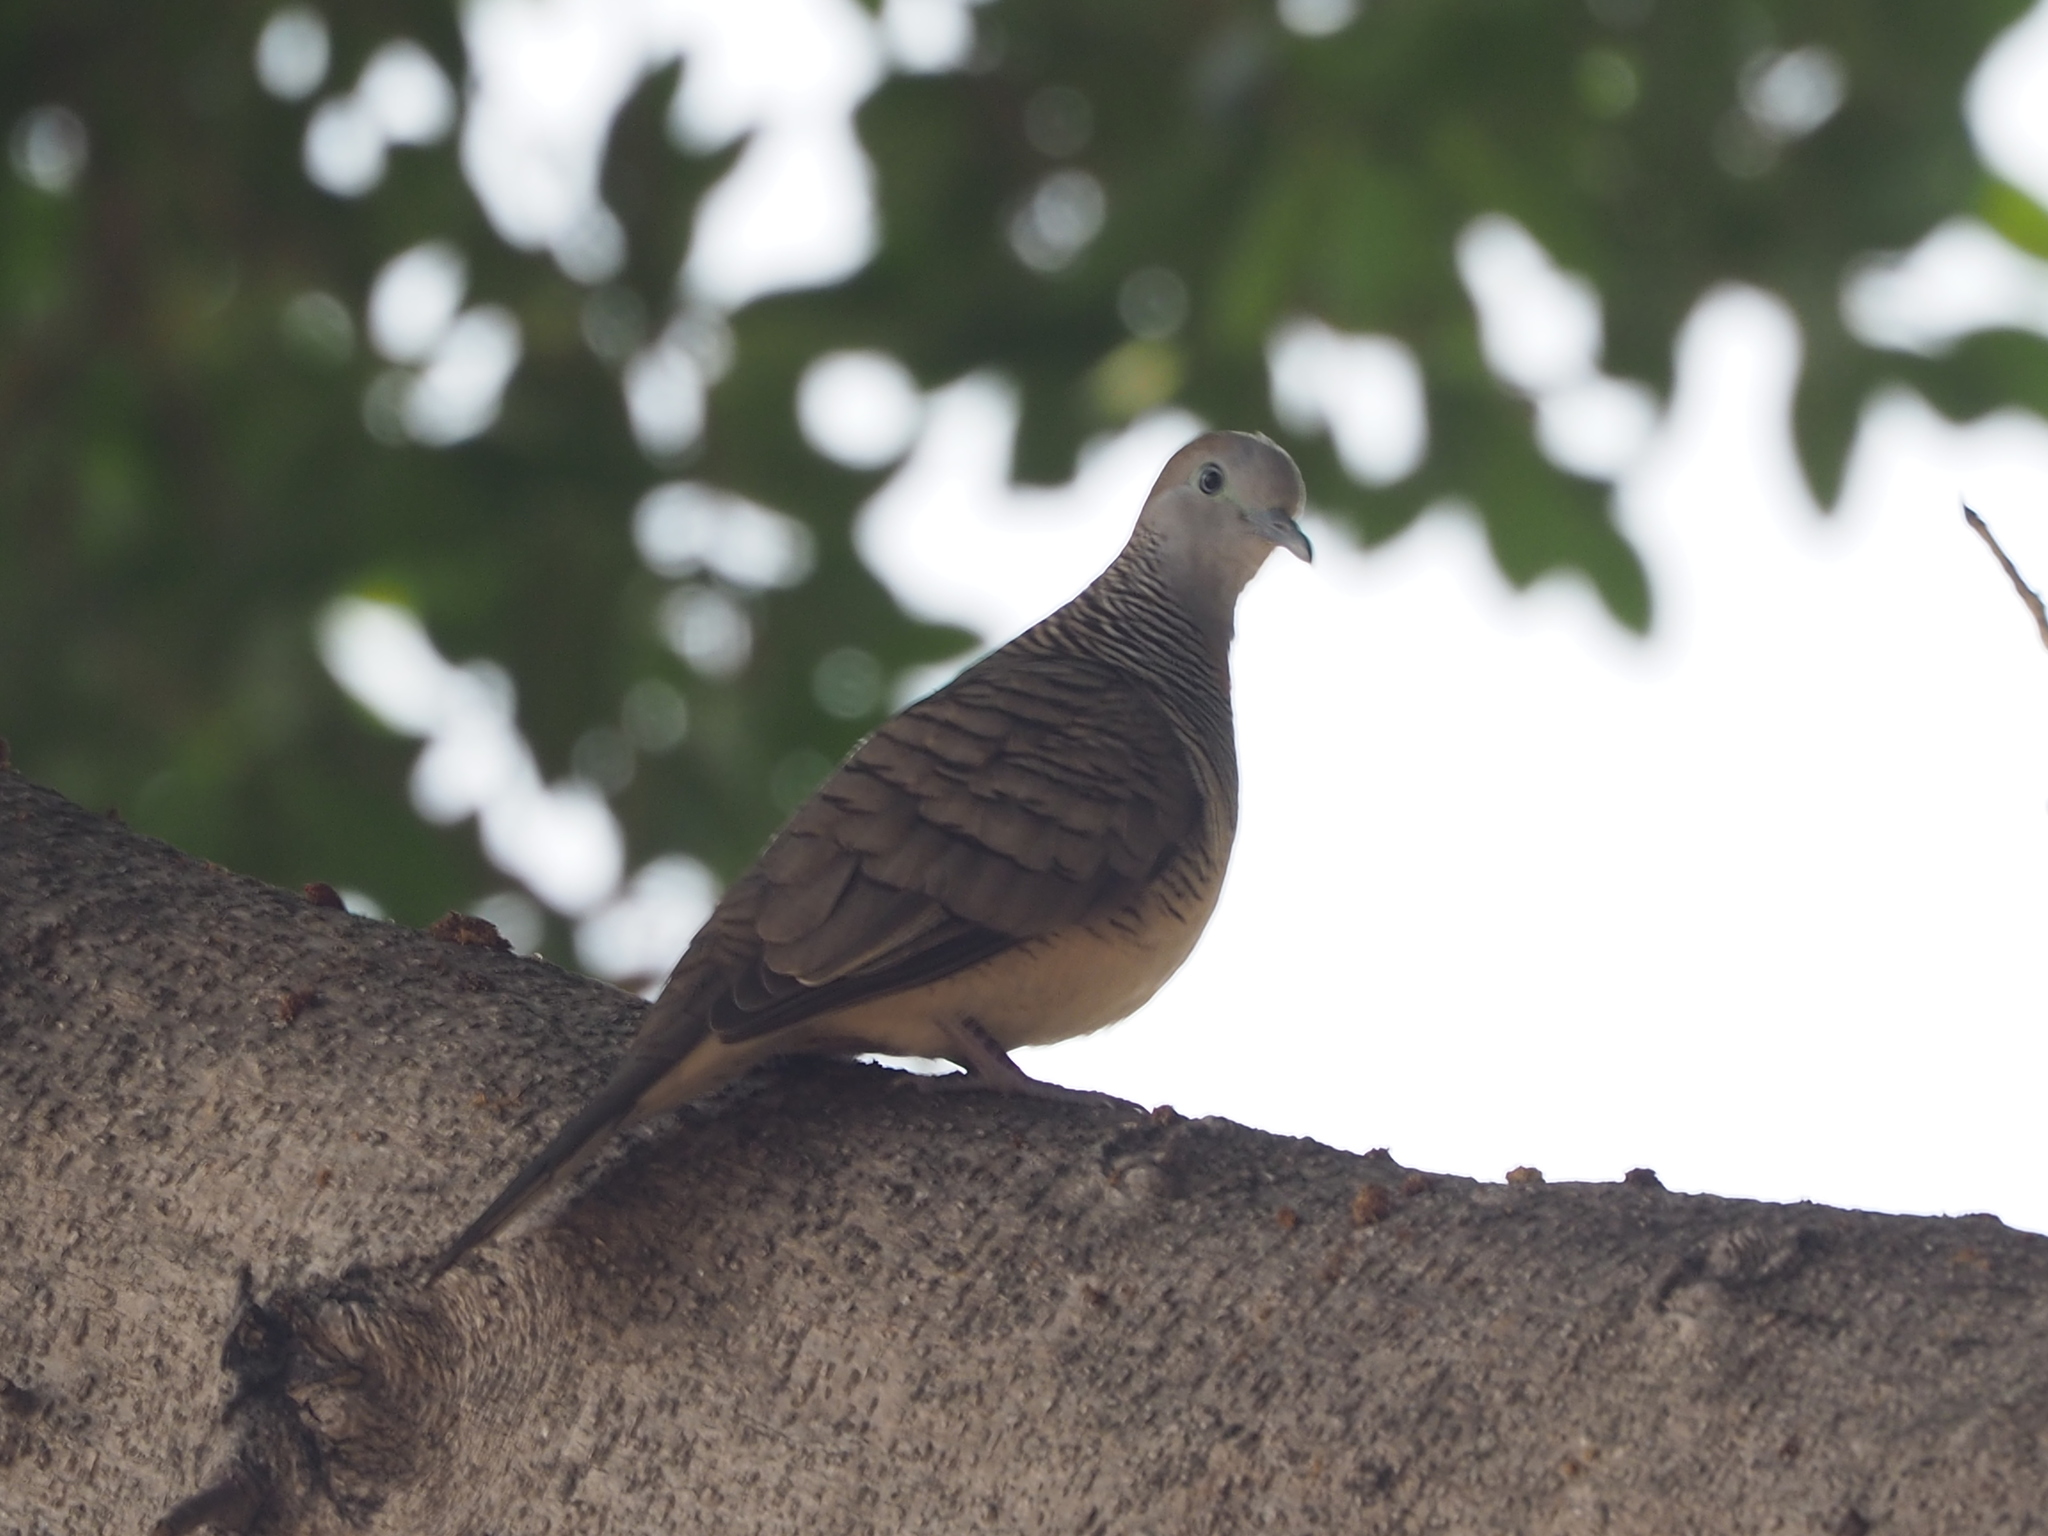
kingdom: Animalia
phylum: Chordata
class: Aves
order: Columbiformes
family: Columbidae
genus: Geopelia
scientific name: Geopelia striata
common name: Zebra dove
